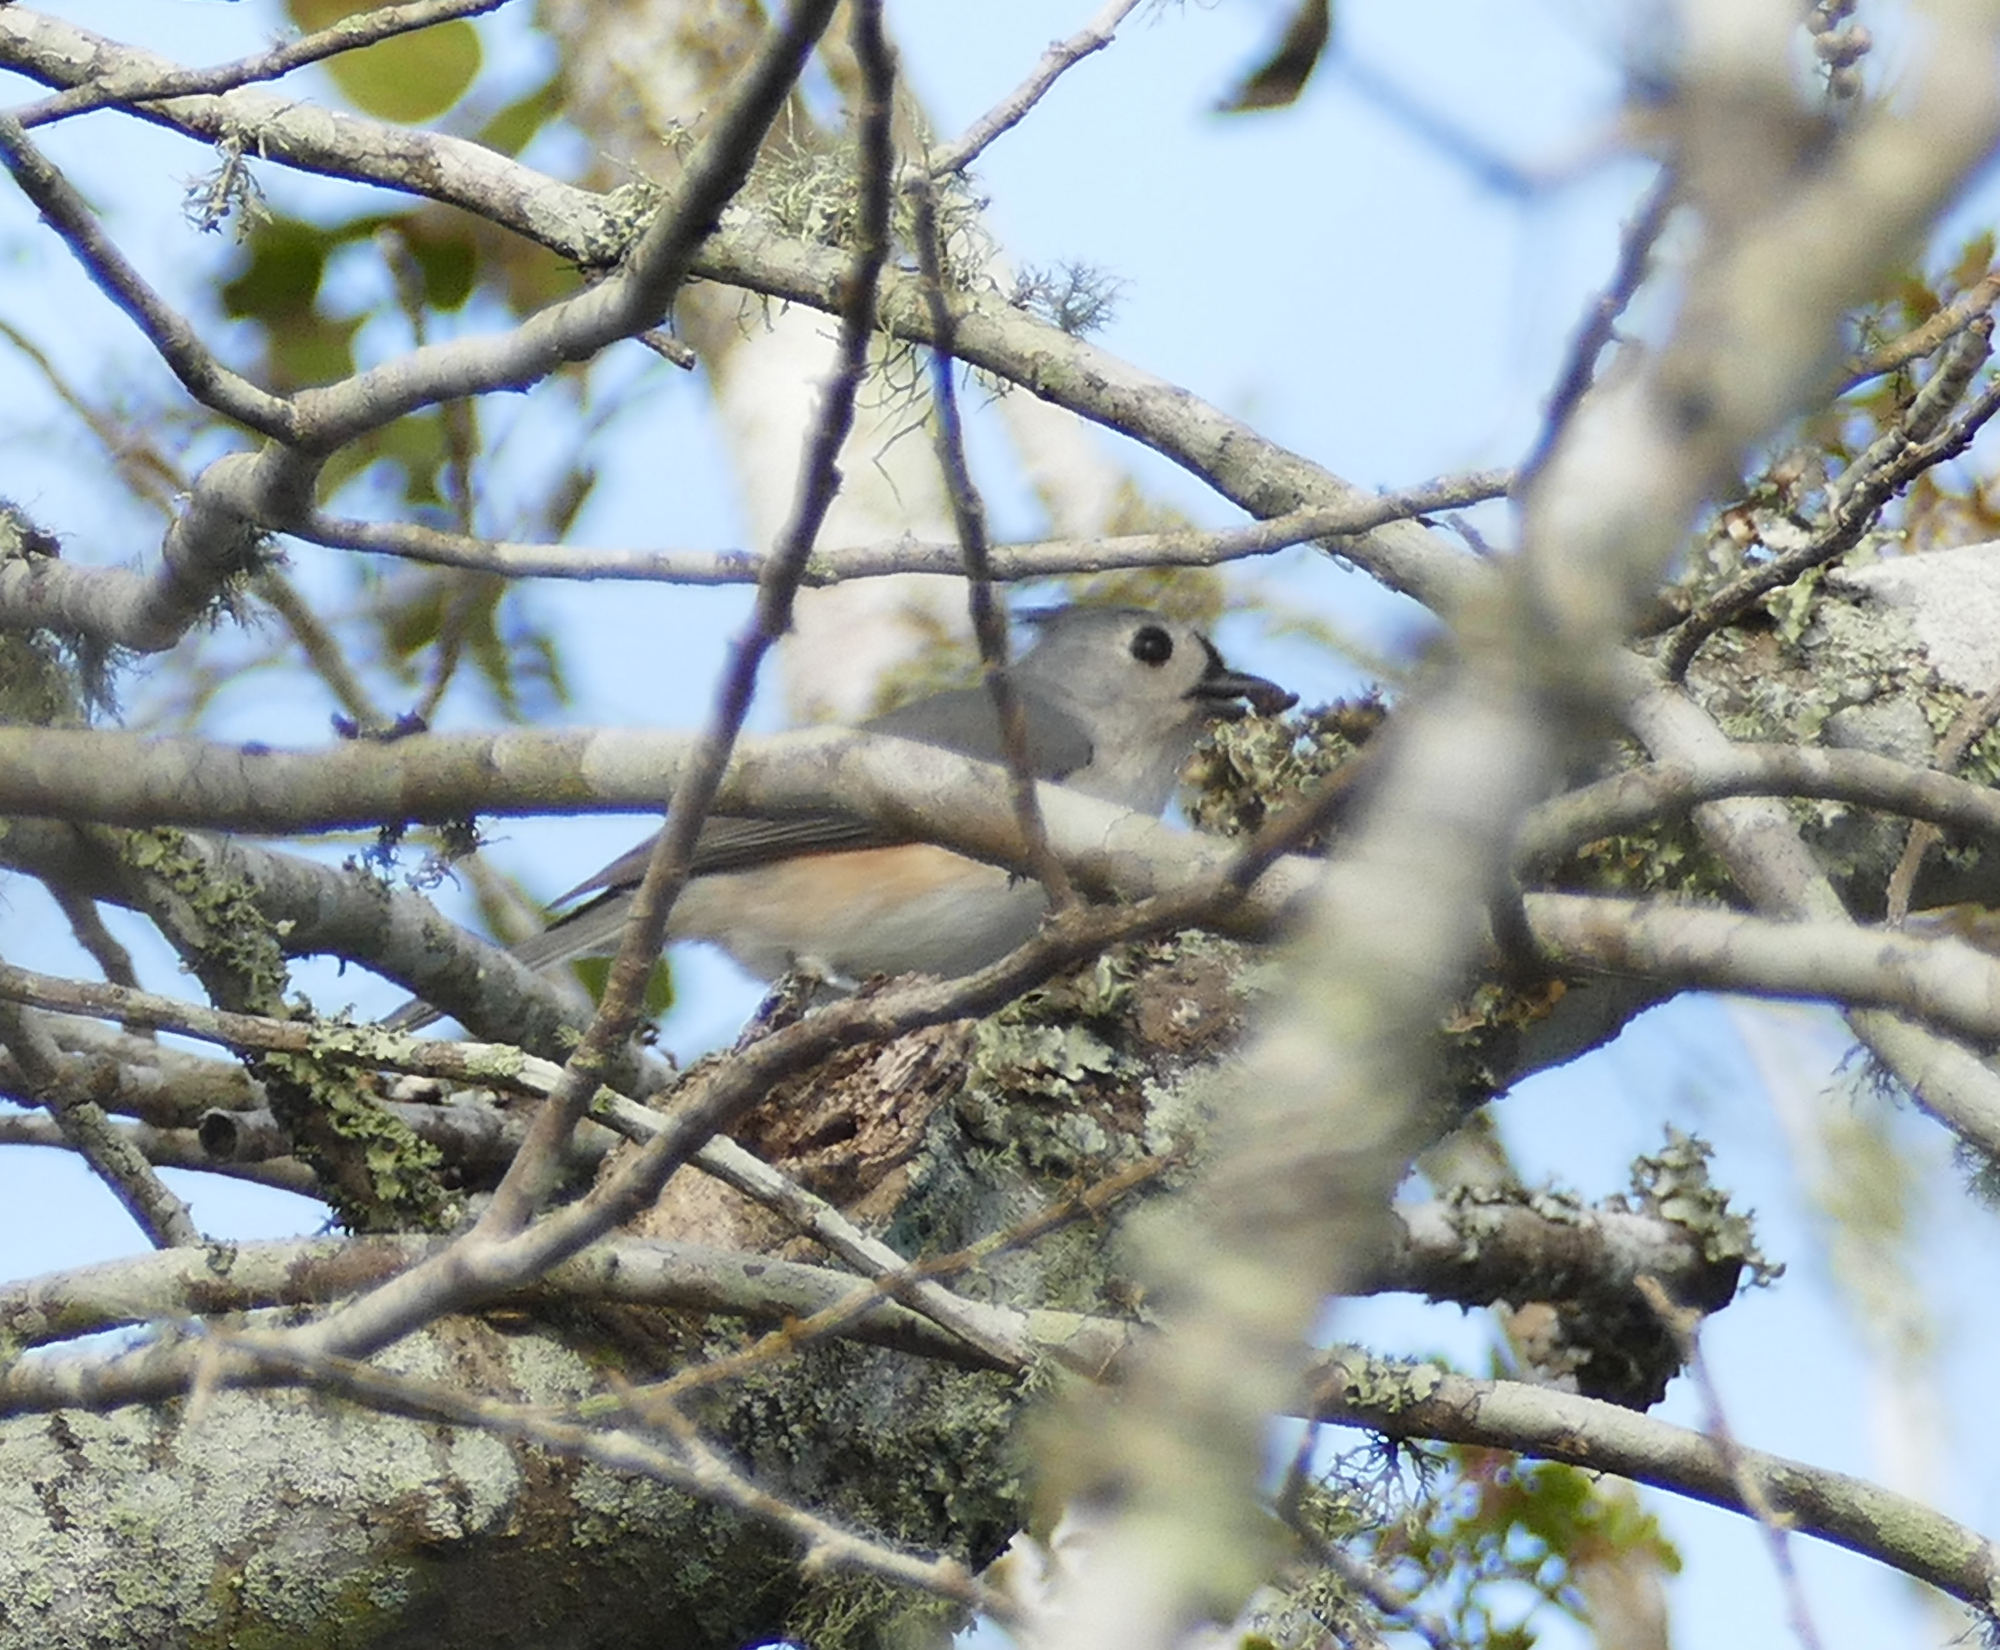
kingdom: Animalia
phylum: Chordata
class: Aves
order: Passeriformes
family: Paridae
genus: Baeolophus
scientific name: Baeolophus bicolor
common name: Tufted titmouse
